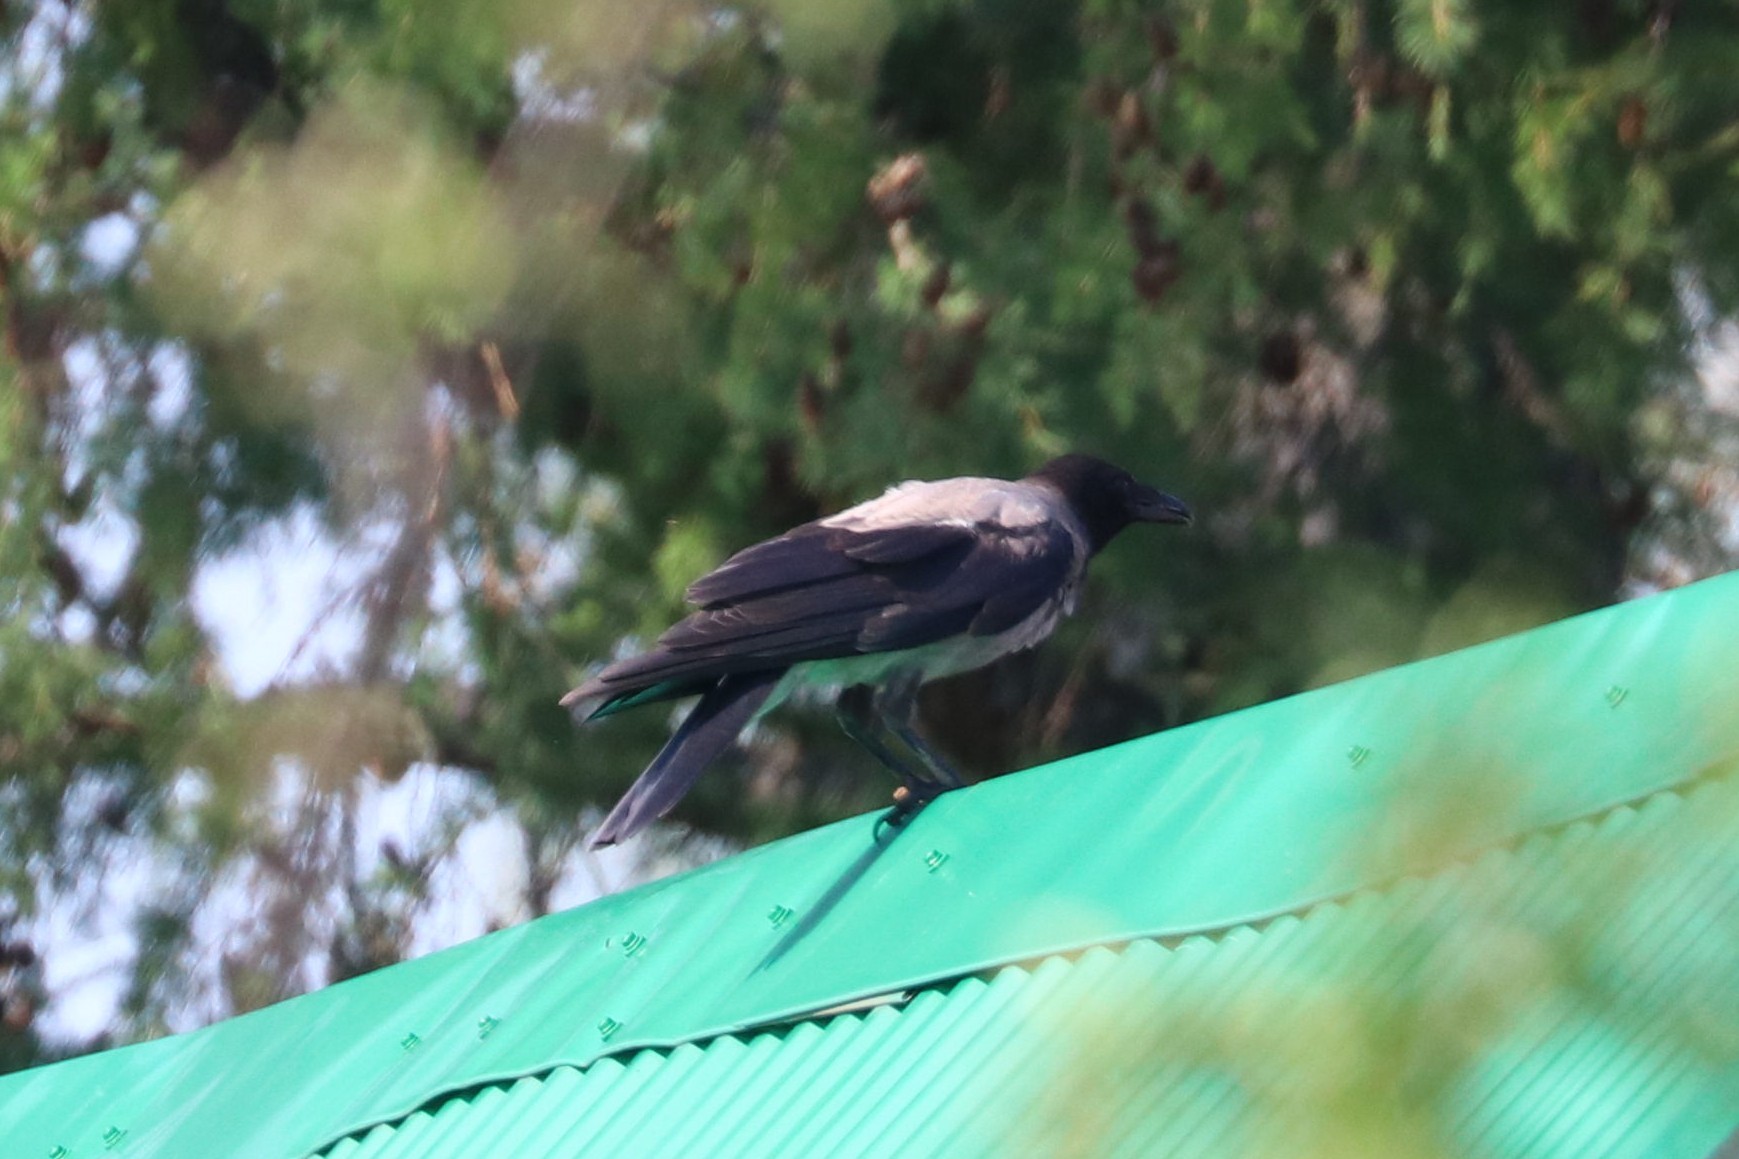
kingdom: Animalia
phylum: Chordata
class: Aves
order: Passeriformes
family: Corvidae
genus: Corvus
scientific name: Corvus cornix
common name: Hooded crow
